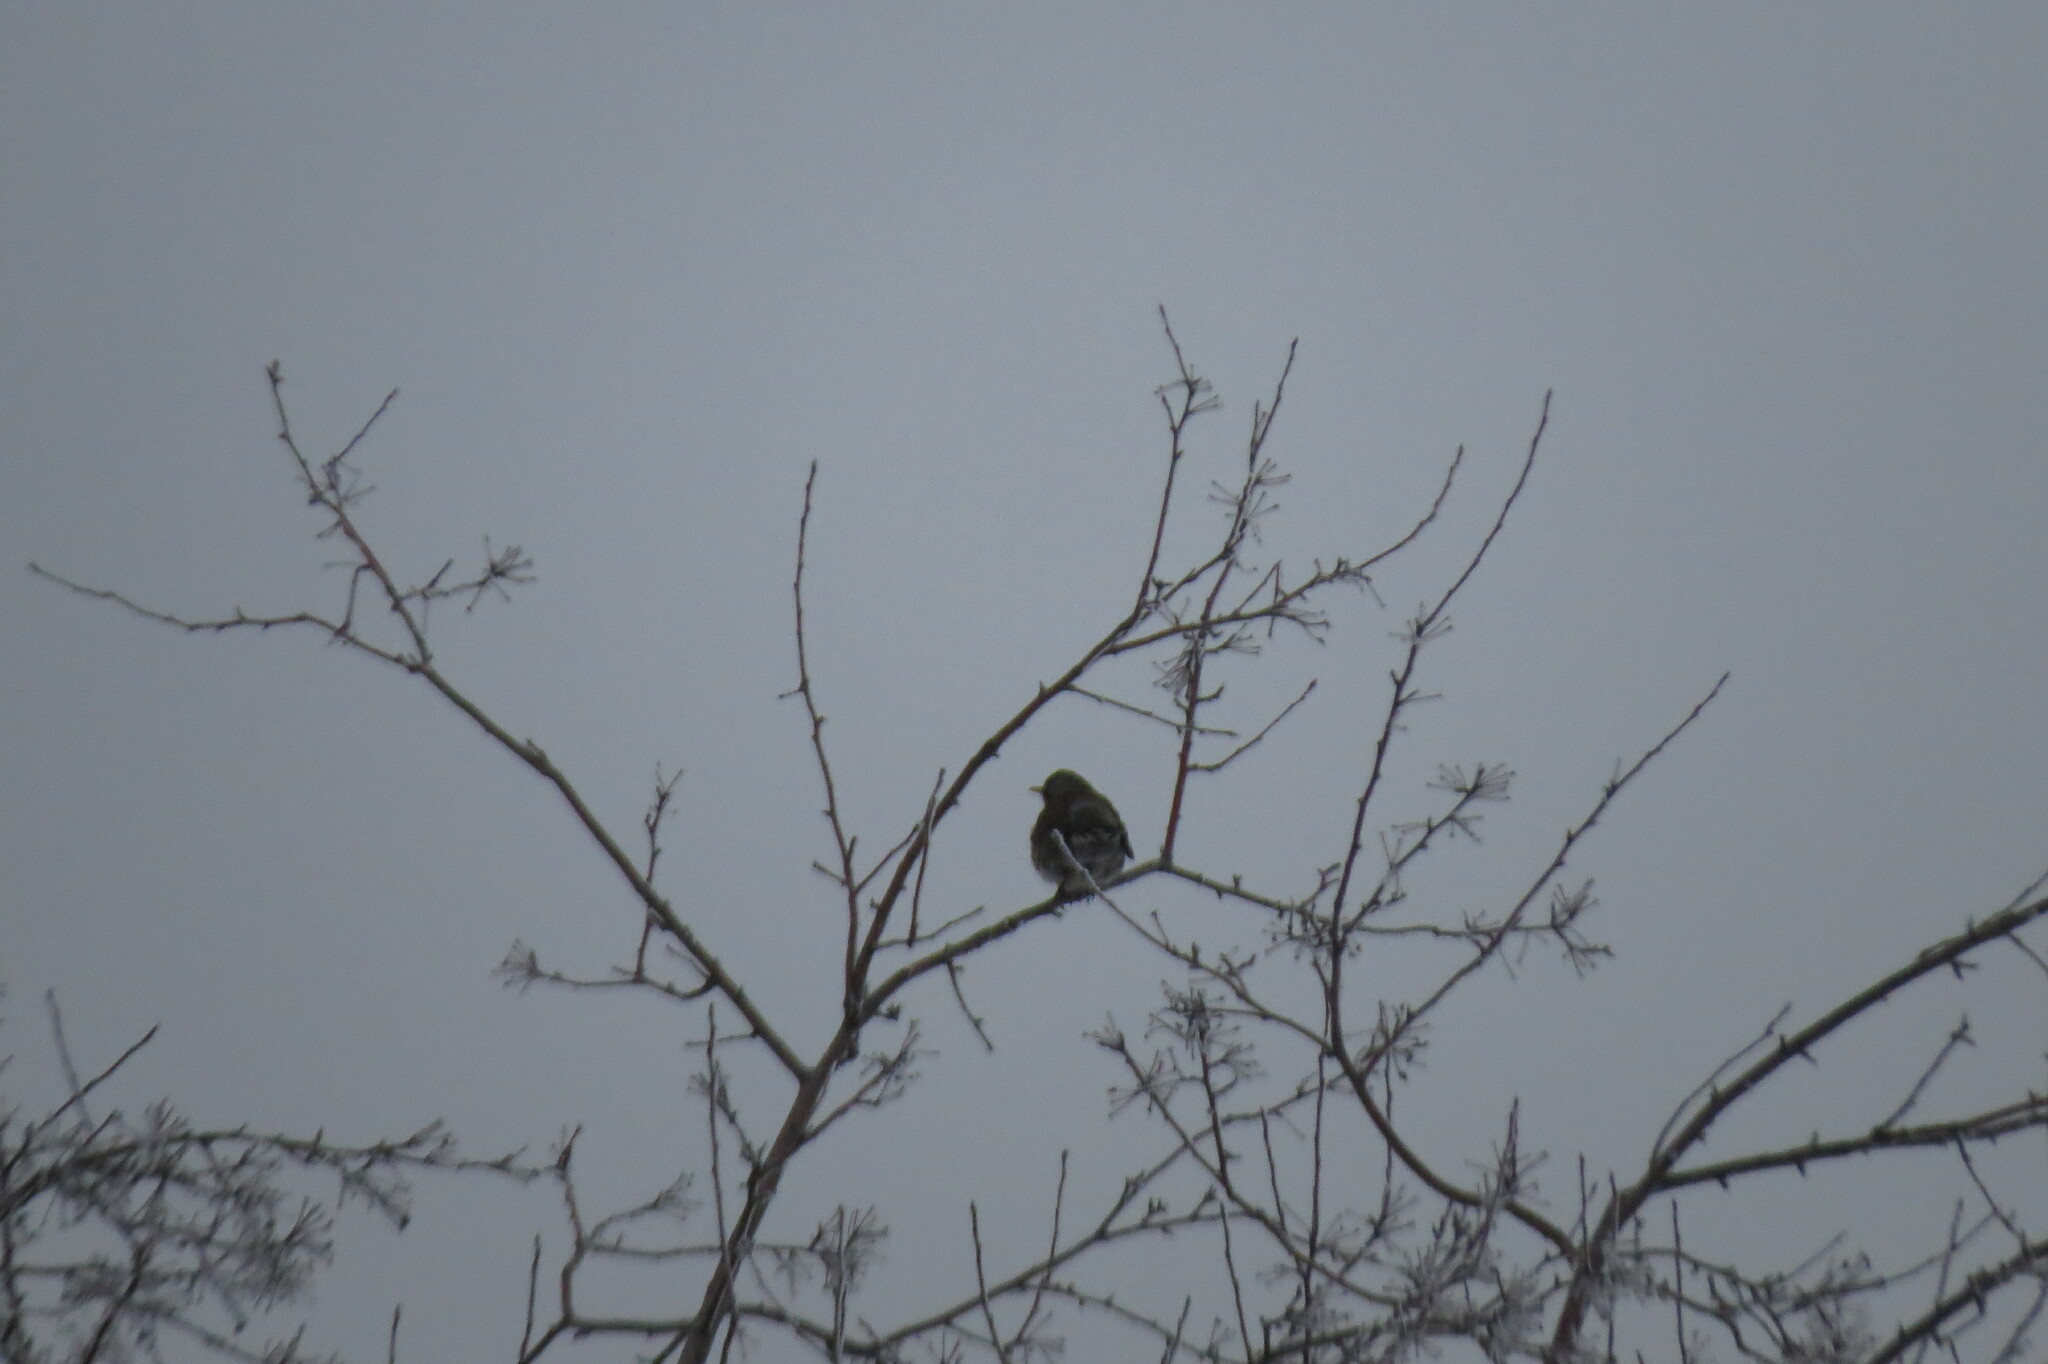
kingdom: Animalia
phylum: Chordata
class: Aves
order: Passeriformes
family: Turdidae
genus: Turdus
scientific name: Turdus pilaris
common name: Fieldfare
